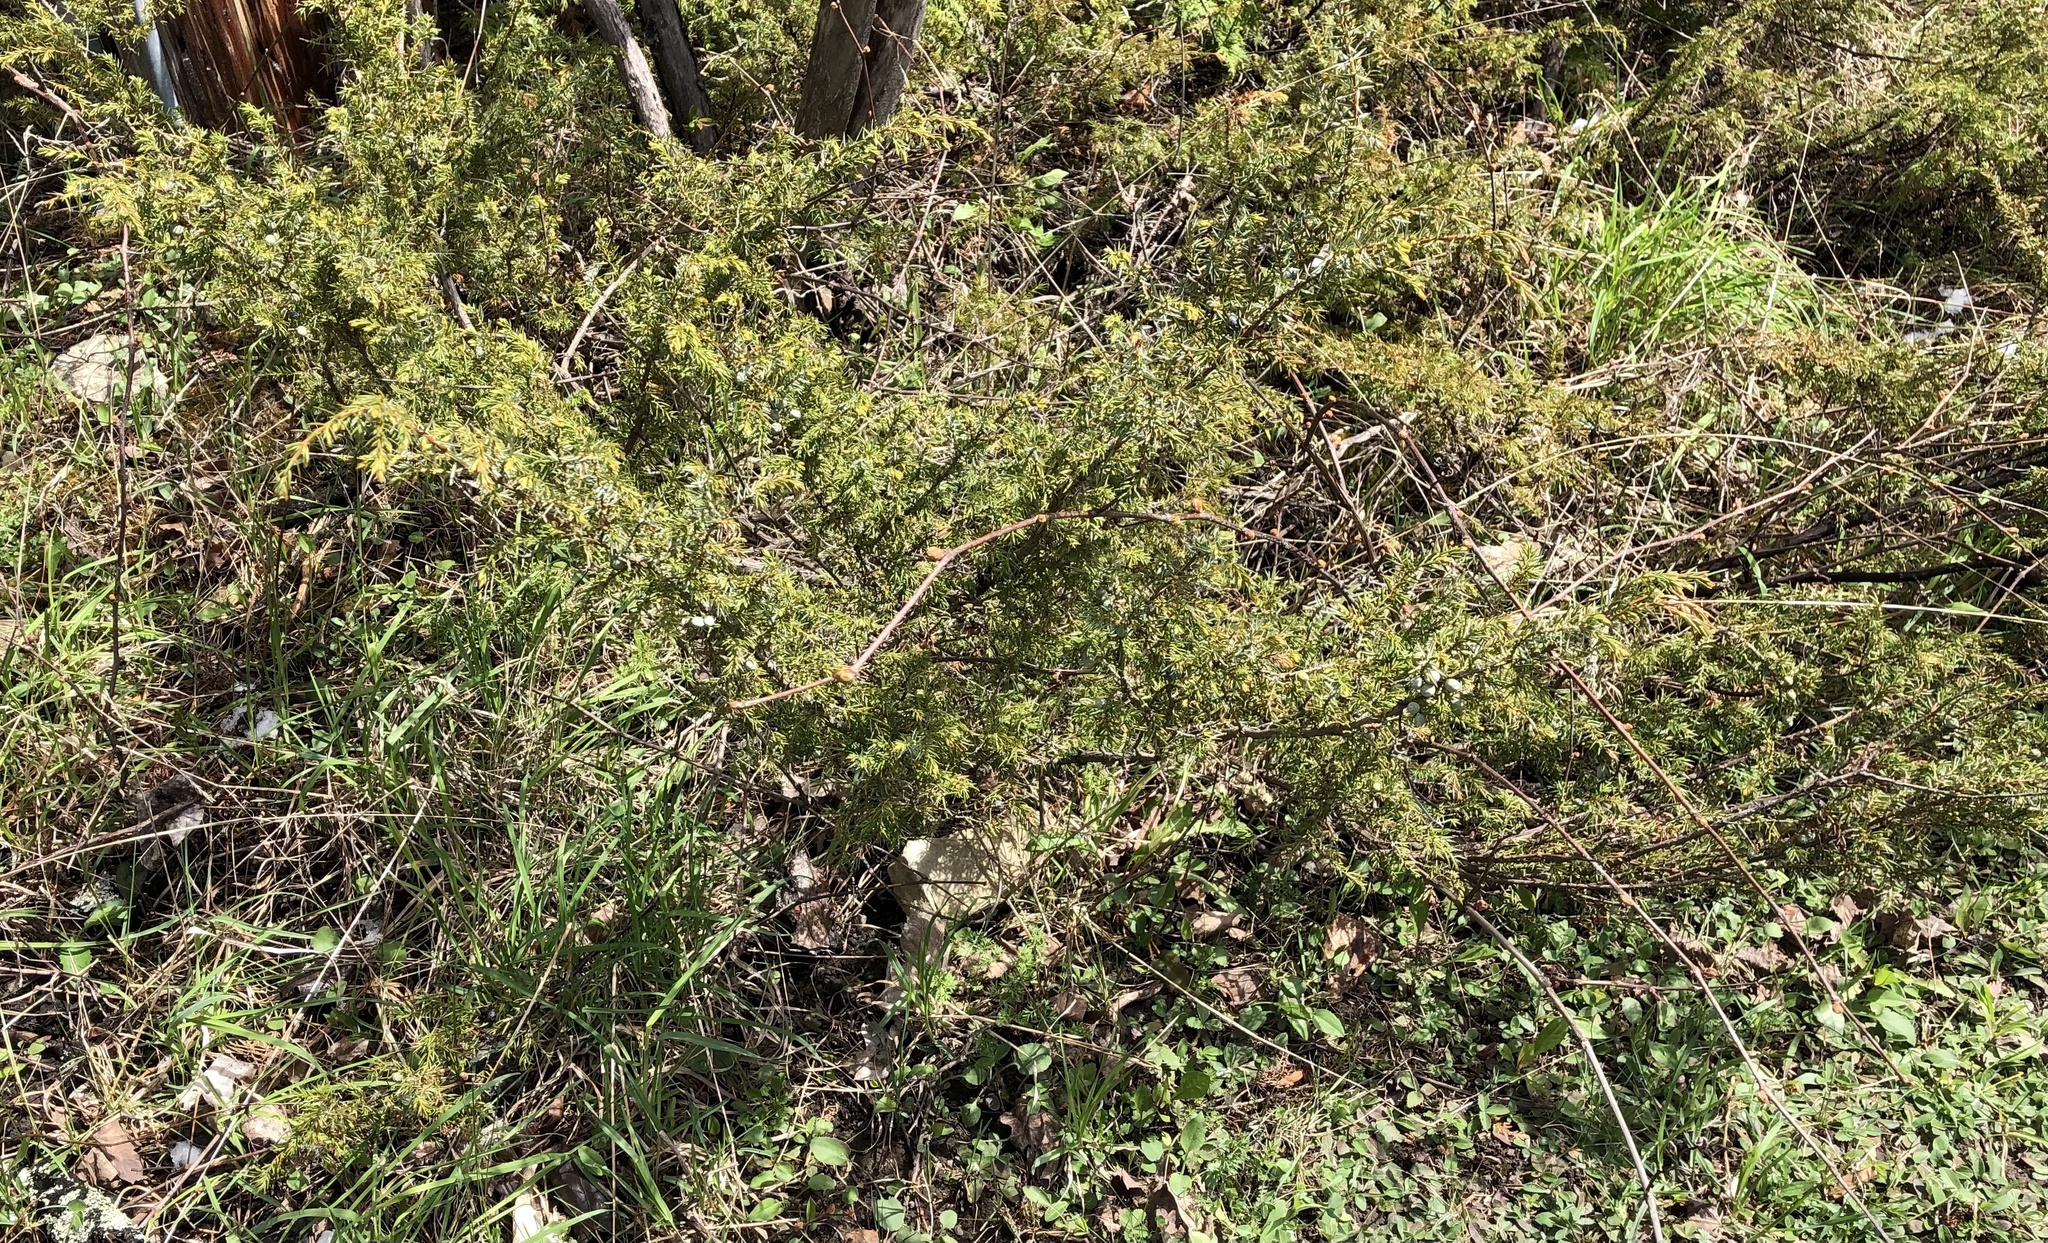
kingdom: Plantae
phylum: Tracheophyta
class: Pinopsida
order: Pinales
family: Cupressaceae
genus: Juniperus
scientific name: Juniperus communis
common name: Common juniper
